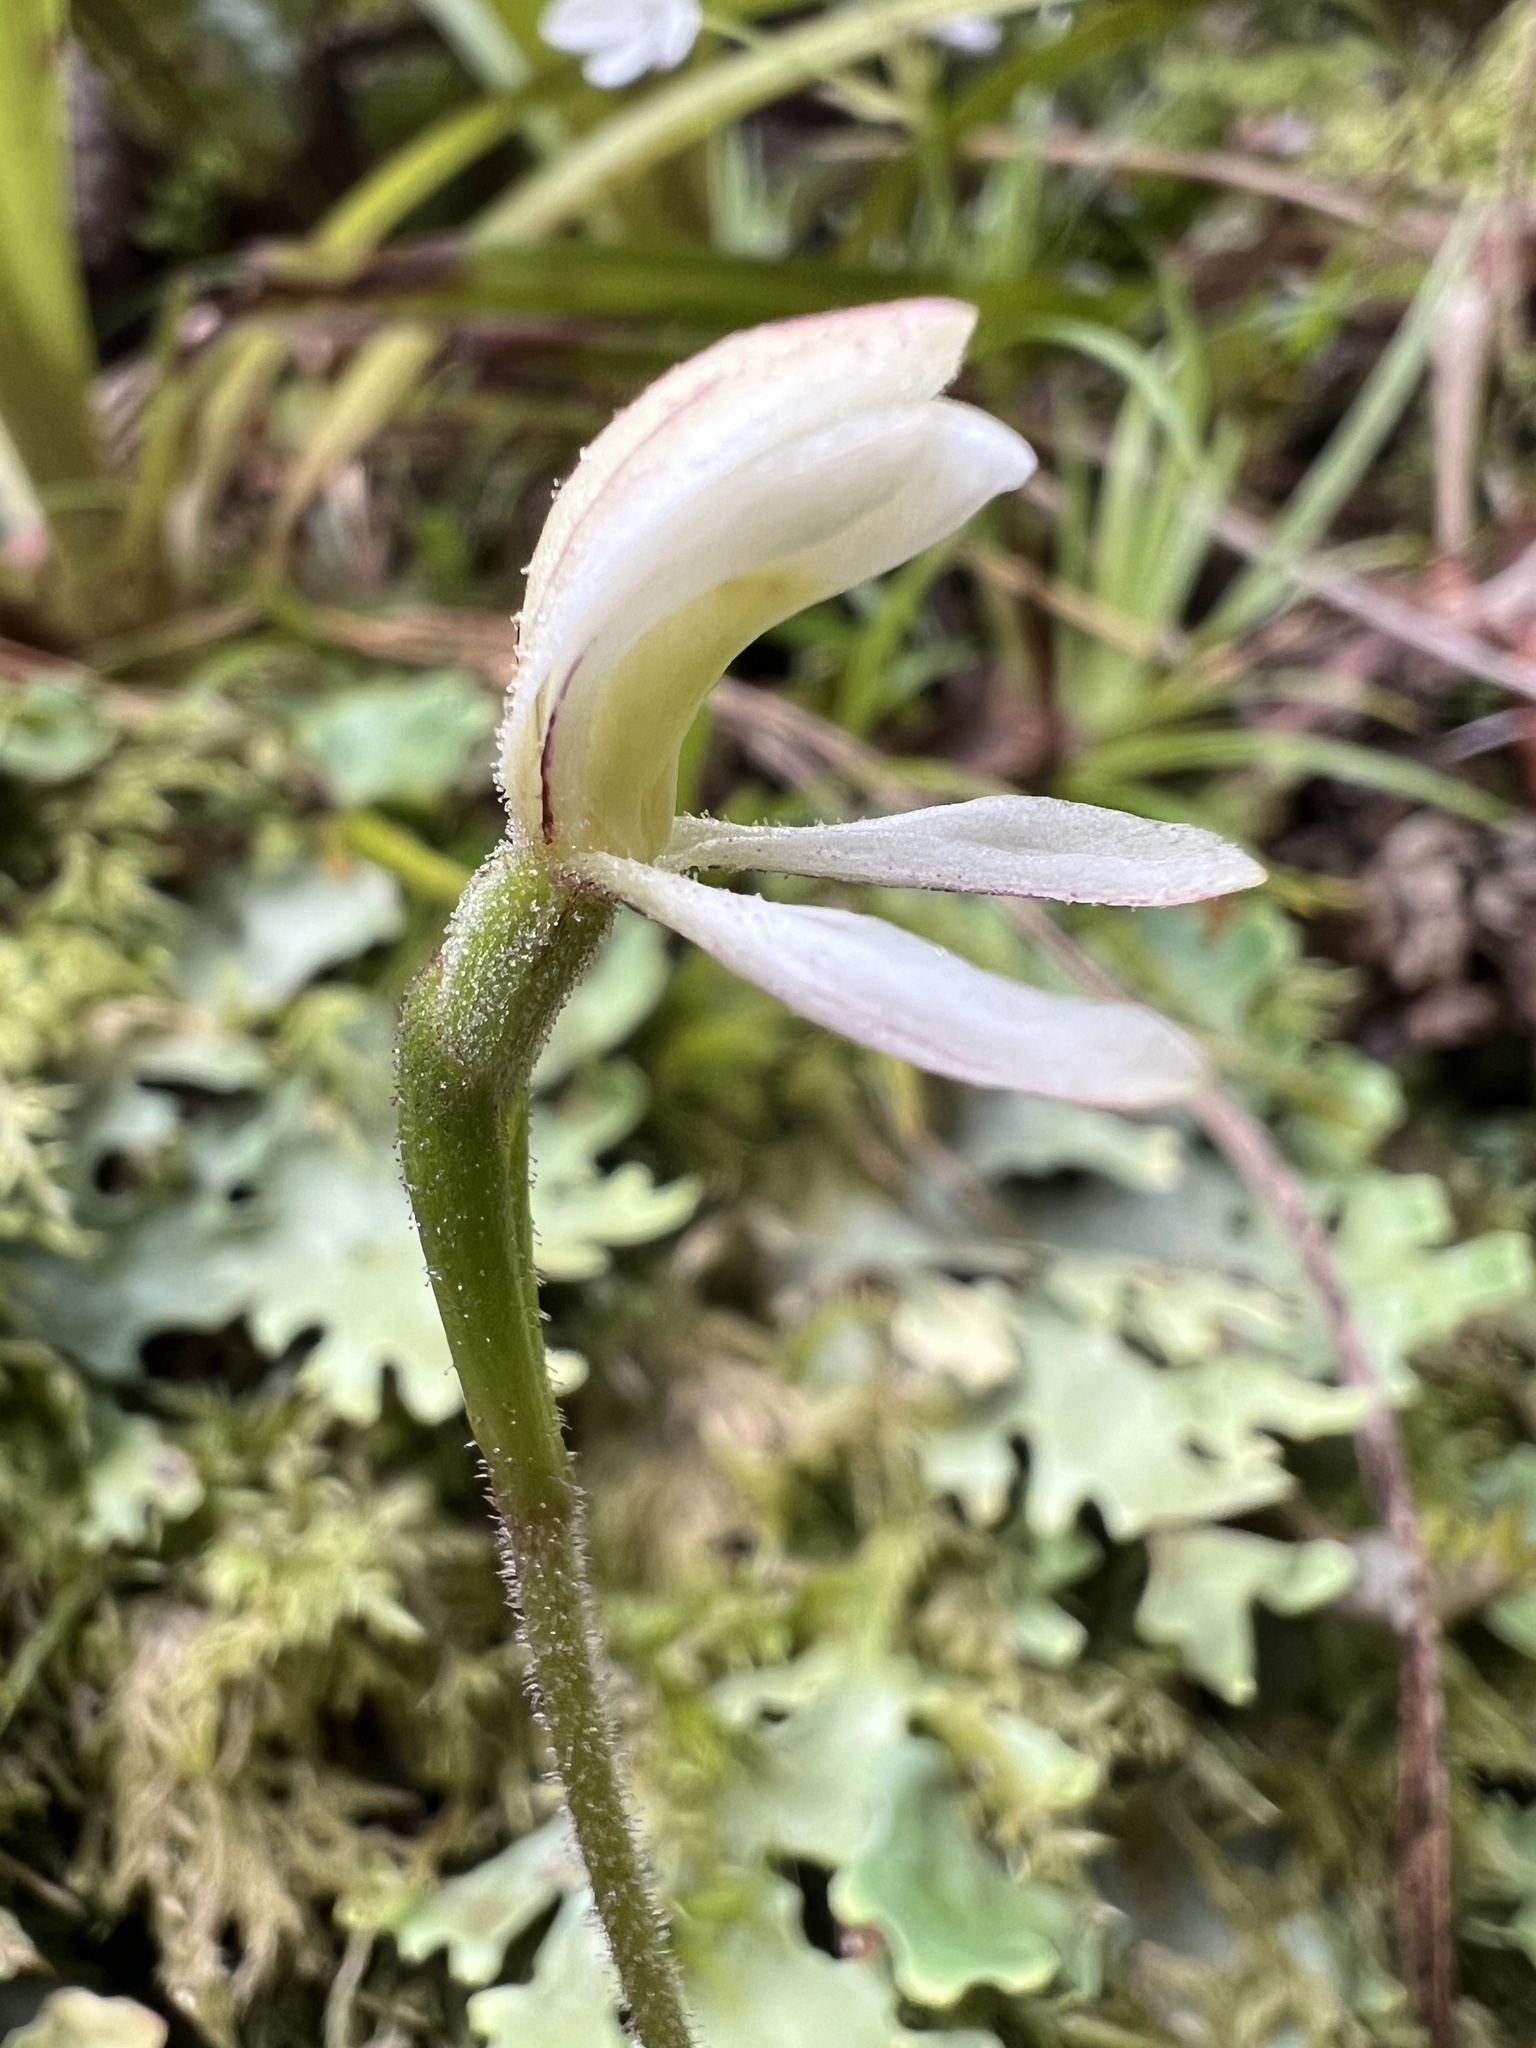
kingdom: Plantae
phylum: Tracheophyta
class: Liliopsida
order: Asparagales
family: Orchidaceae
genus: Aporostylis
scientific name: Aporostylis bifolia
